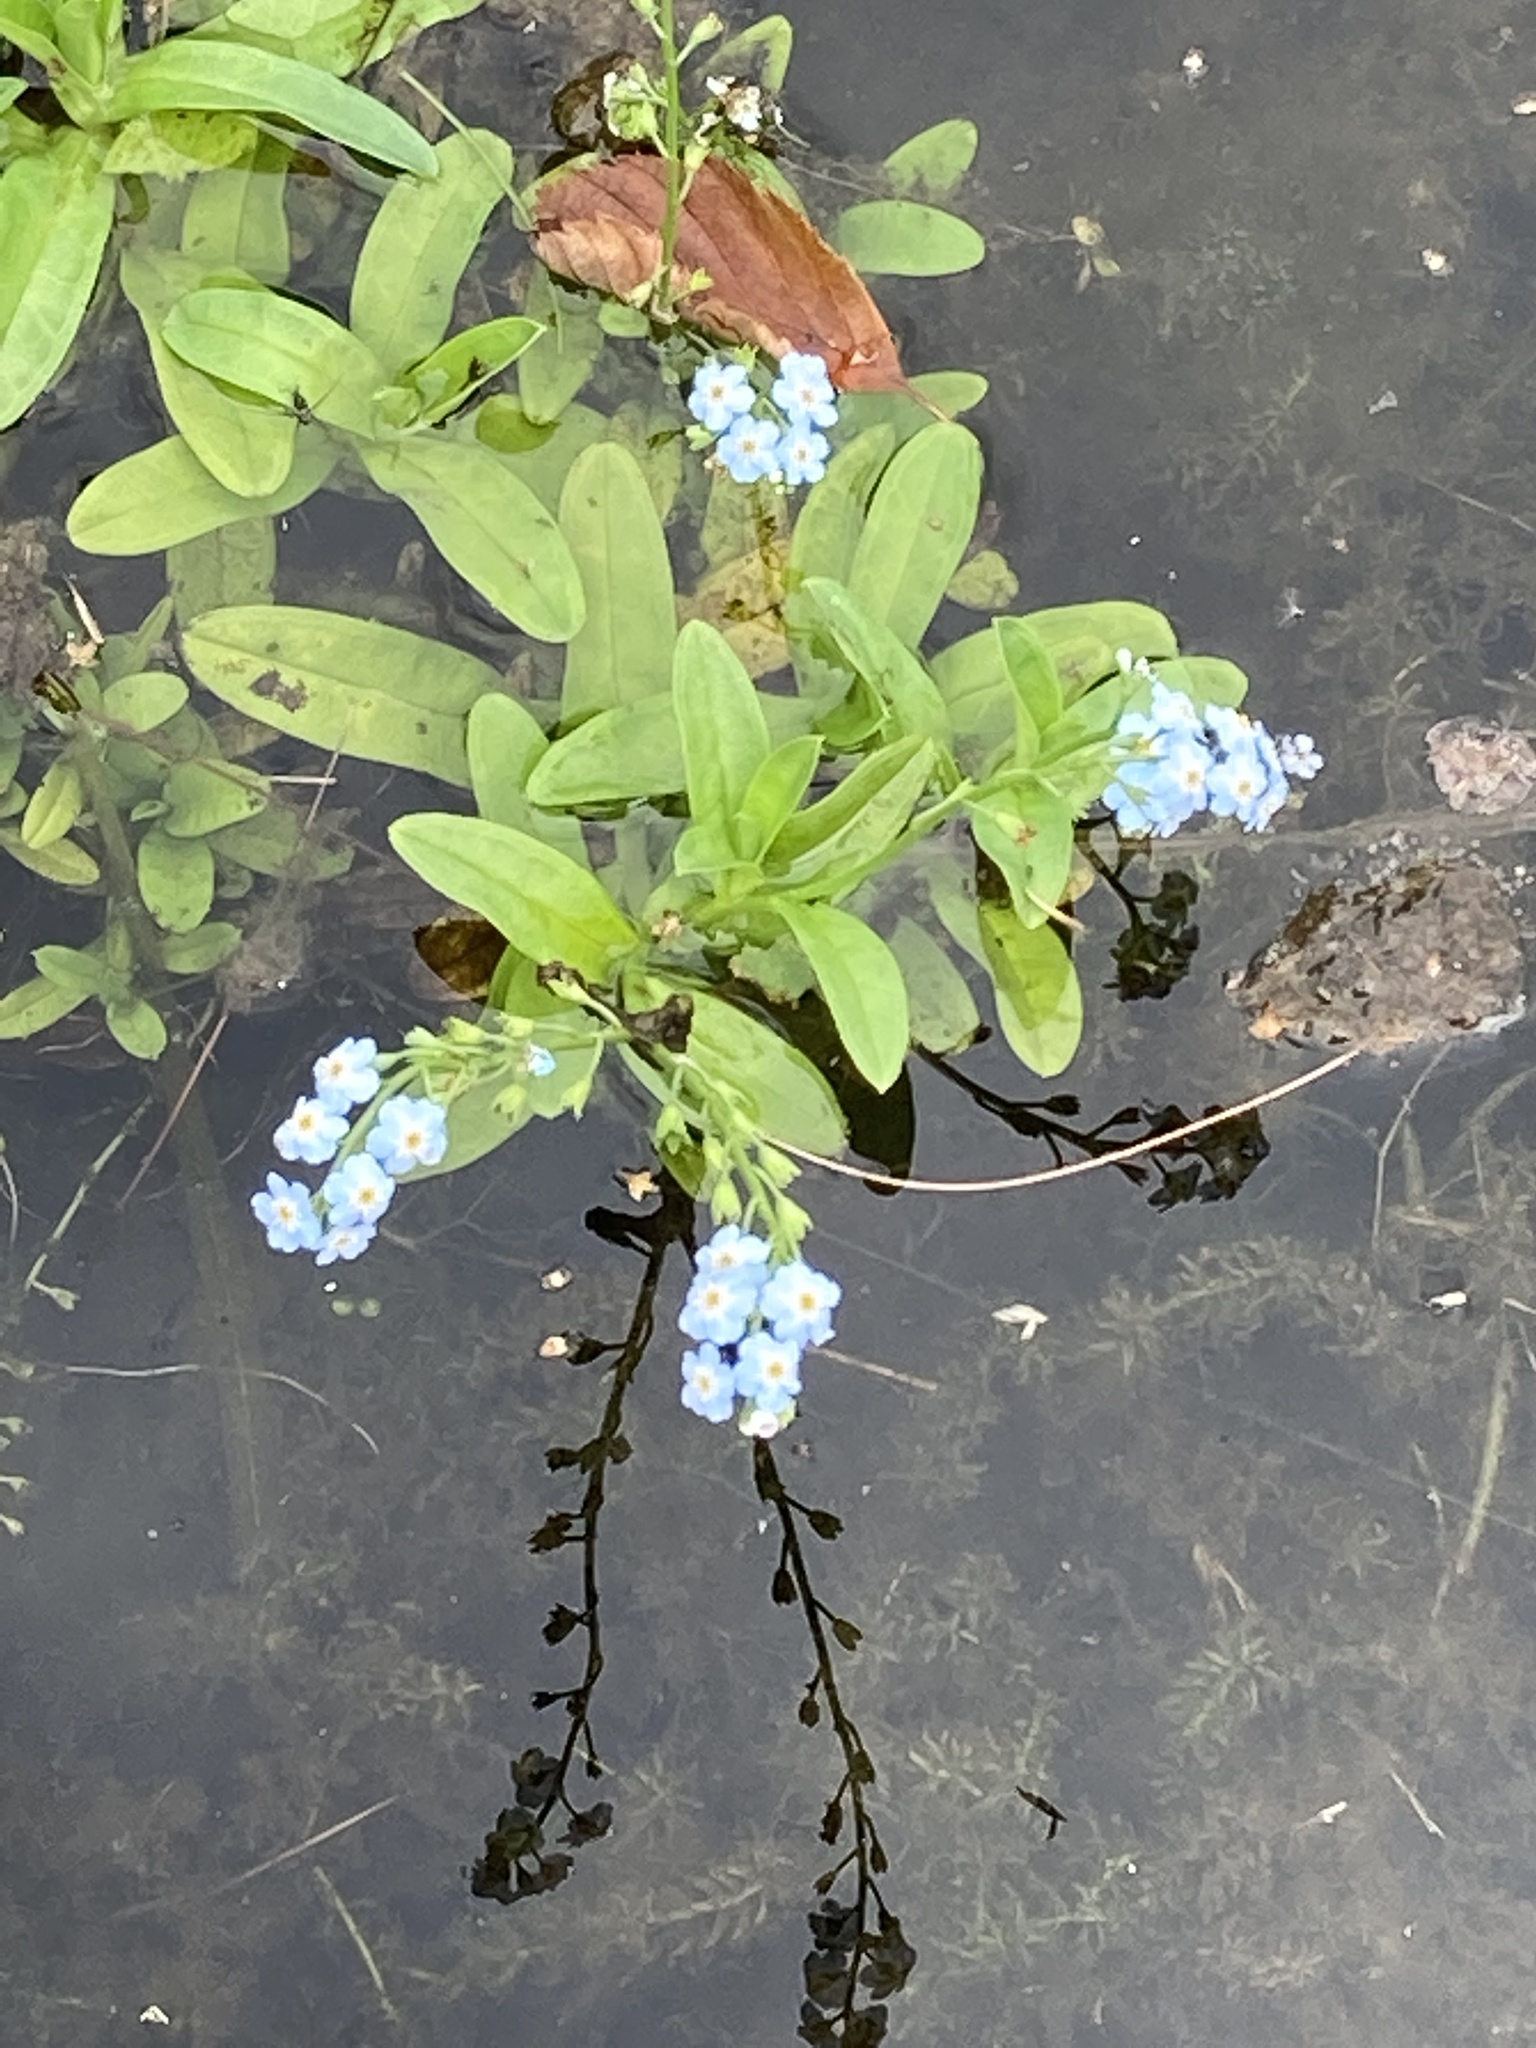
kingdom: Plantae
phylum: Tracheophyta
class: Magnoliopsida
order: Boraginales
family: Boraginaceae
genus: Myosotis
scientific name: Myosotis scorpioides
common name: Water forget-me-not
